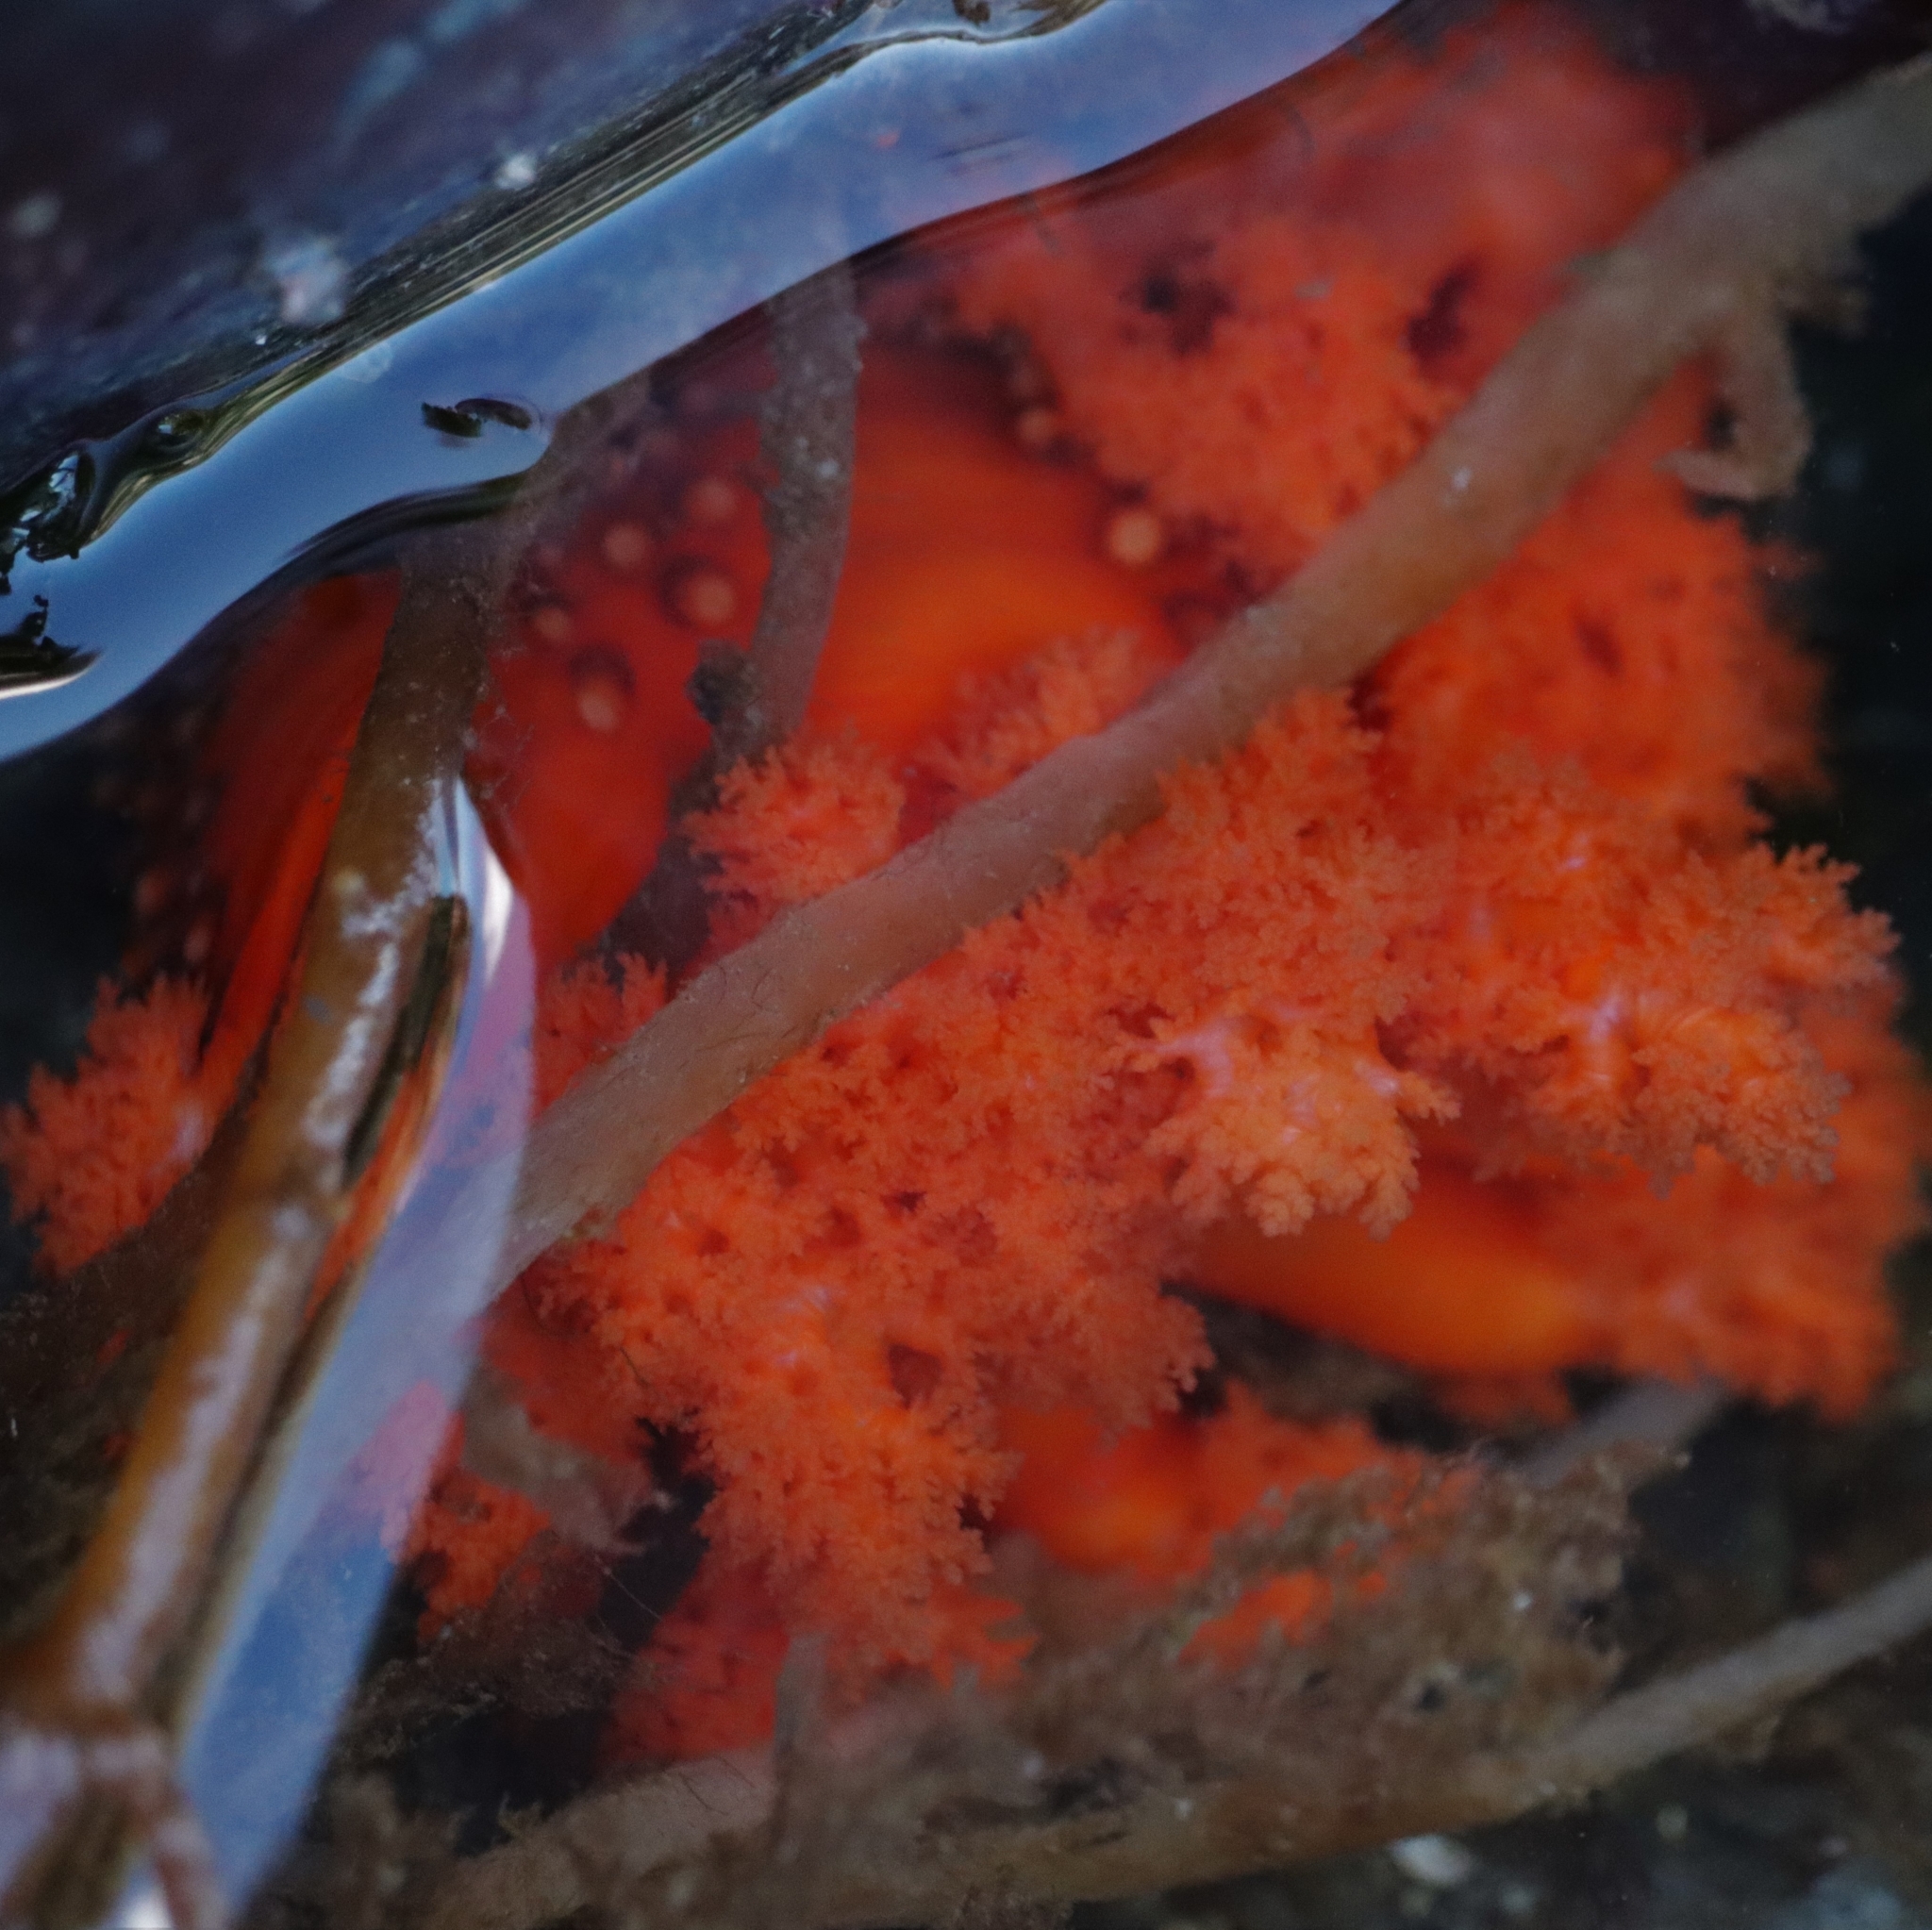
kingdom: Animalia
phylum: Echinodermata
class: Holothuroidea
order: Dendrochirotida
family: Cucumariidae
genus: Cucumaria
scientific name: Cucumaria miniata
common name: Orange sea cucumber
